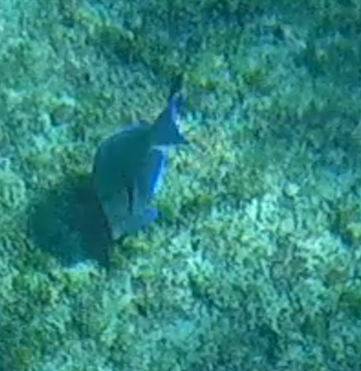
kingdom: Animalia
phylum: Chordata
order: Perciformes
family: Acanthuridae
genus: Acanthurus
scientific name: Acanthurus coeruleus
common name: Blue tang
